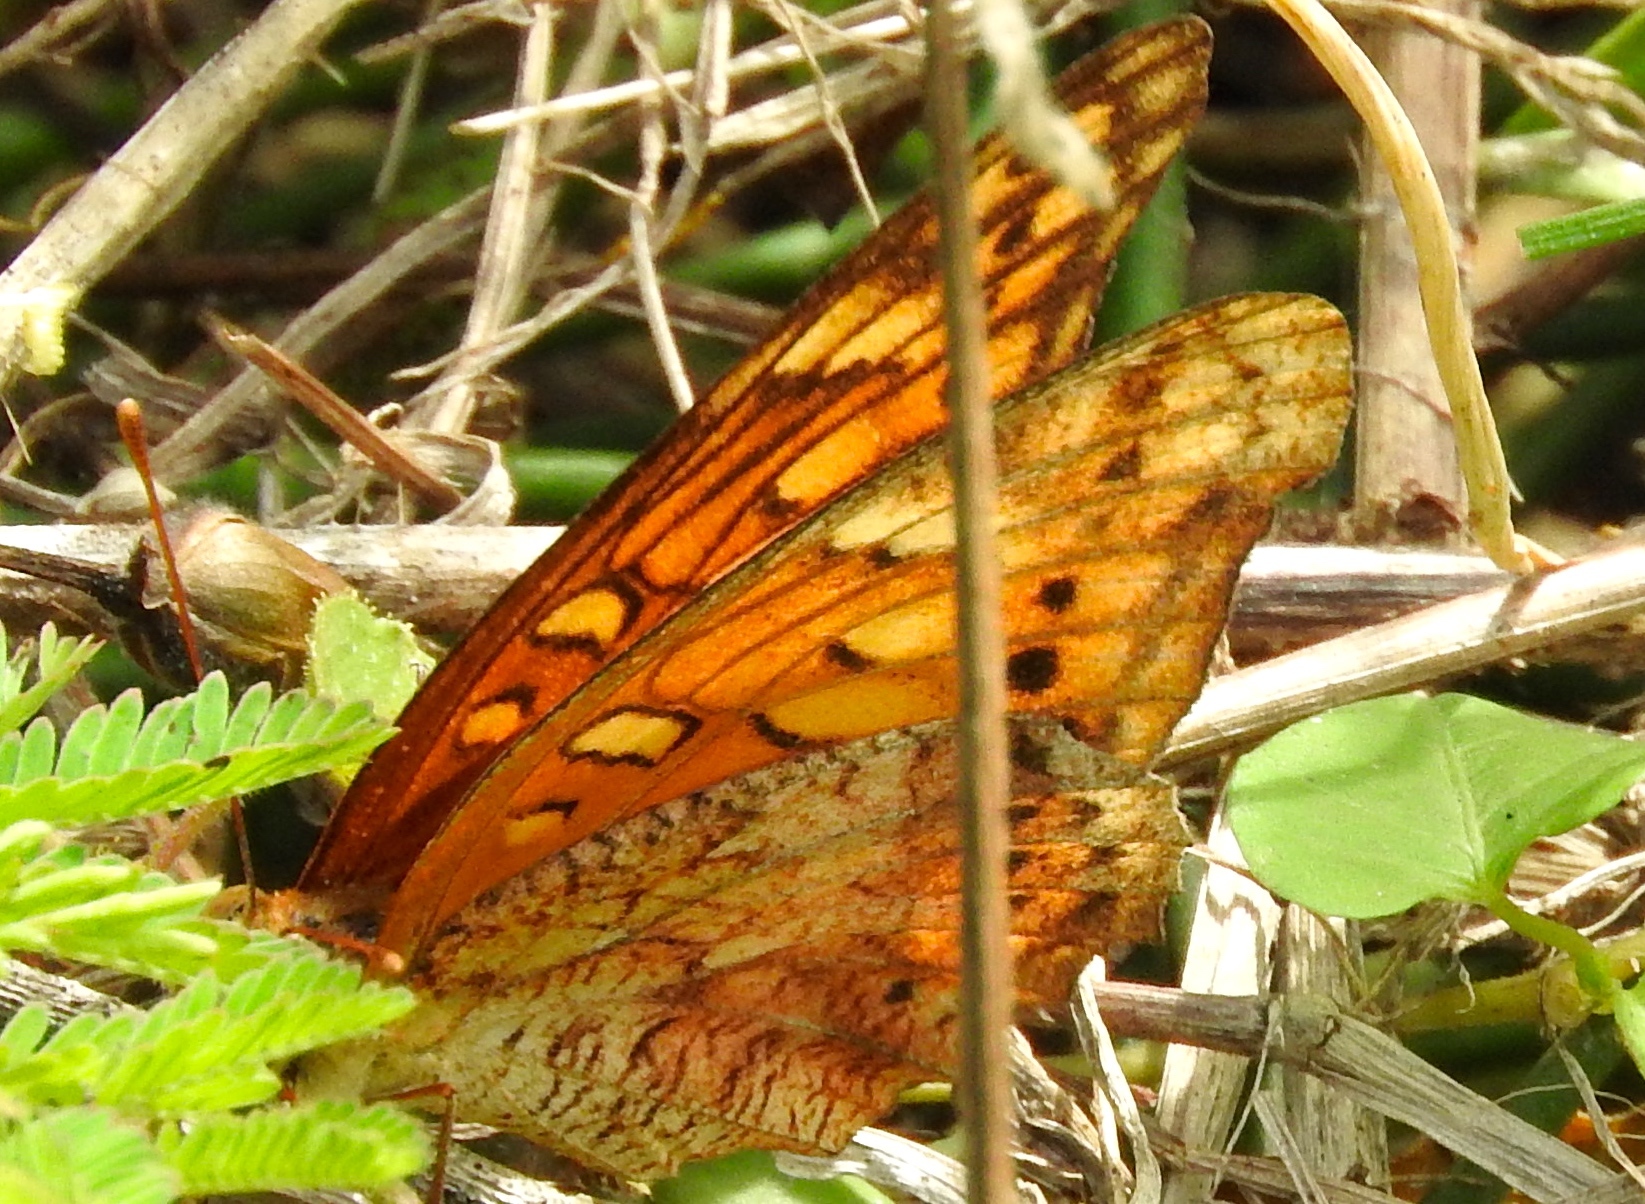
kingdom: Animalia
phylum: Arthropoda
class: Insecta
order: Lepidoptera
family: Nymphalidae
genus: Euptoieta
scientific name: Euptoieta hegesia
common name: Mexican fritillary
